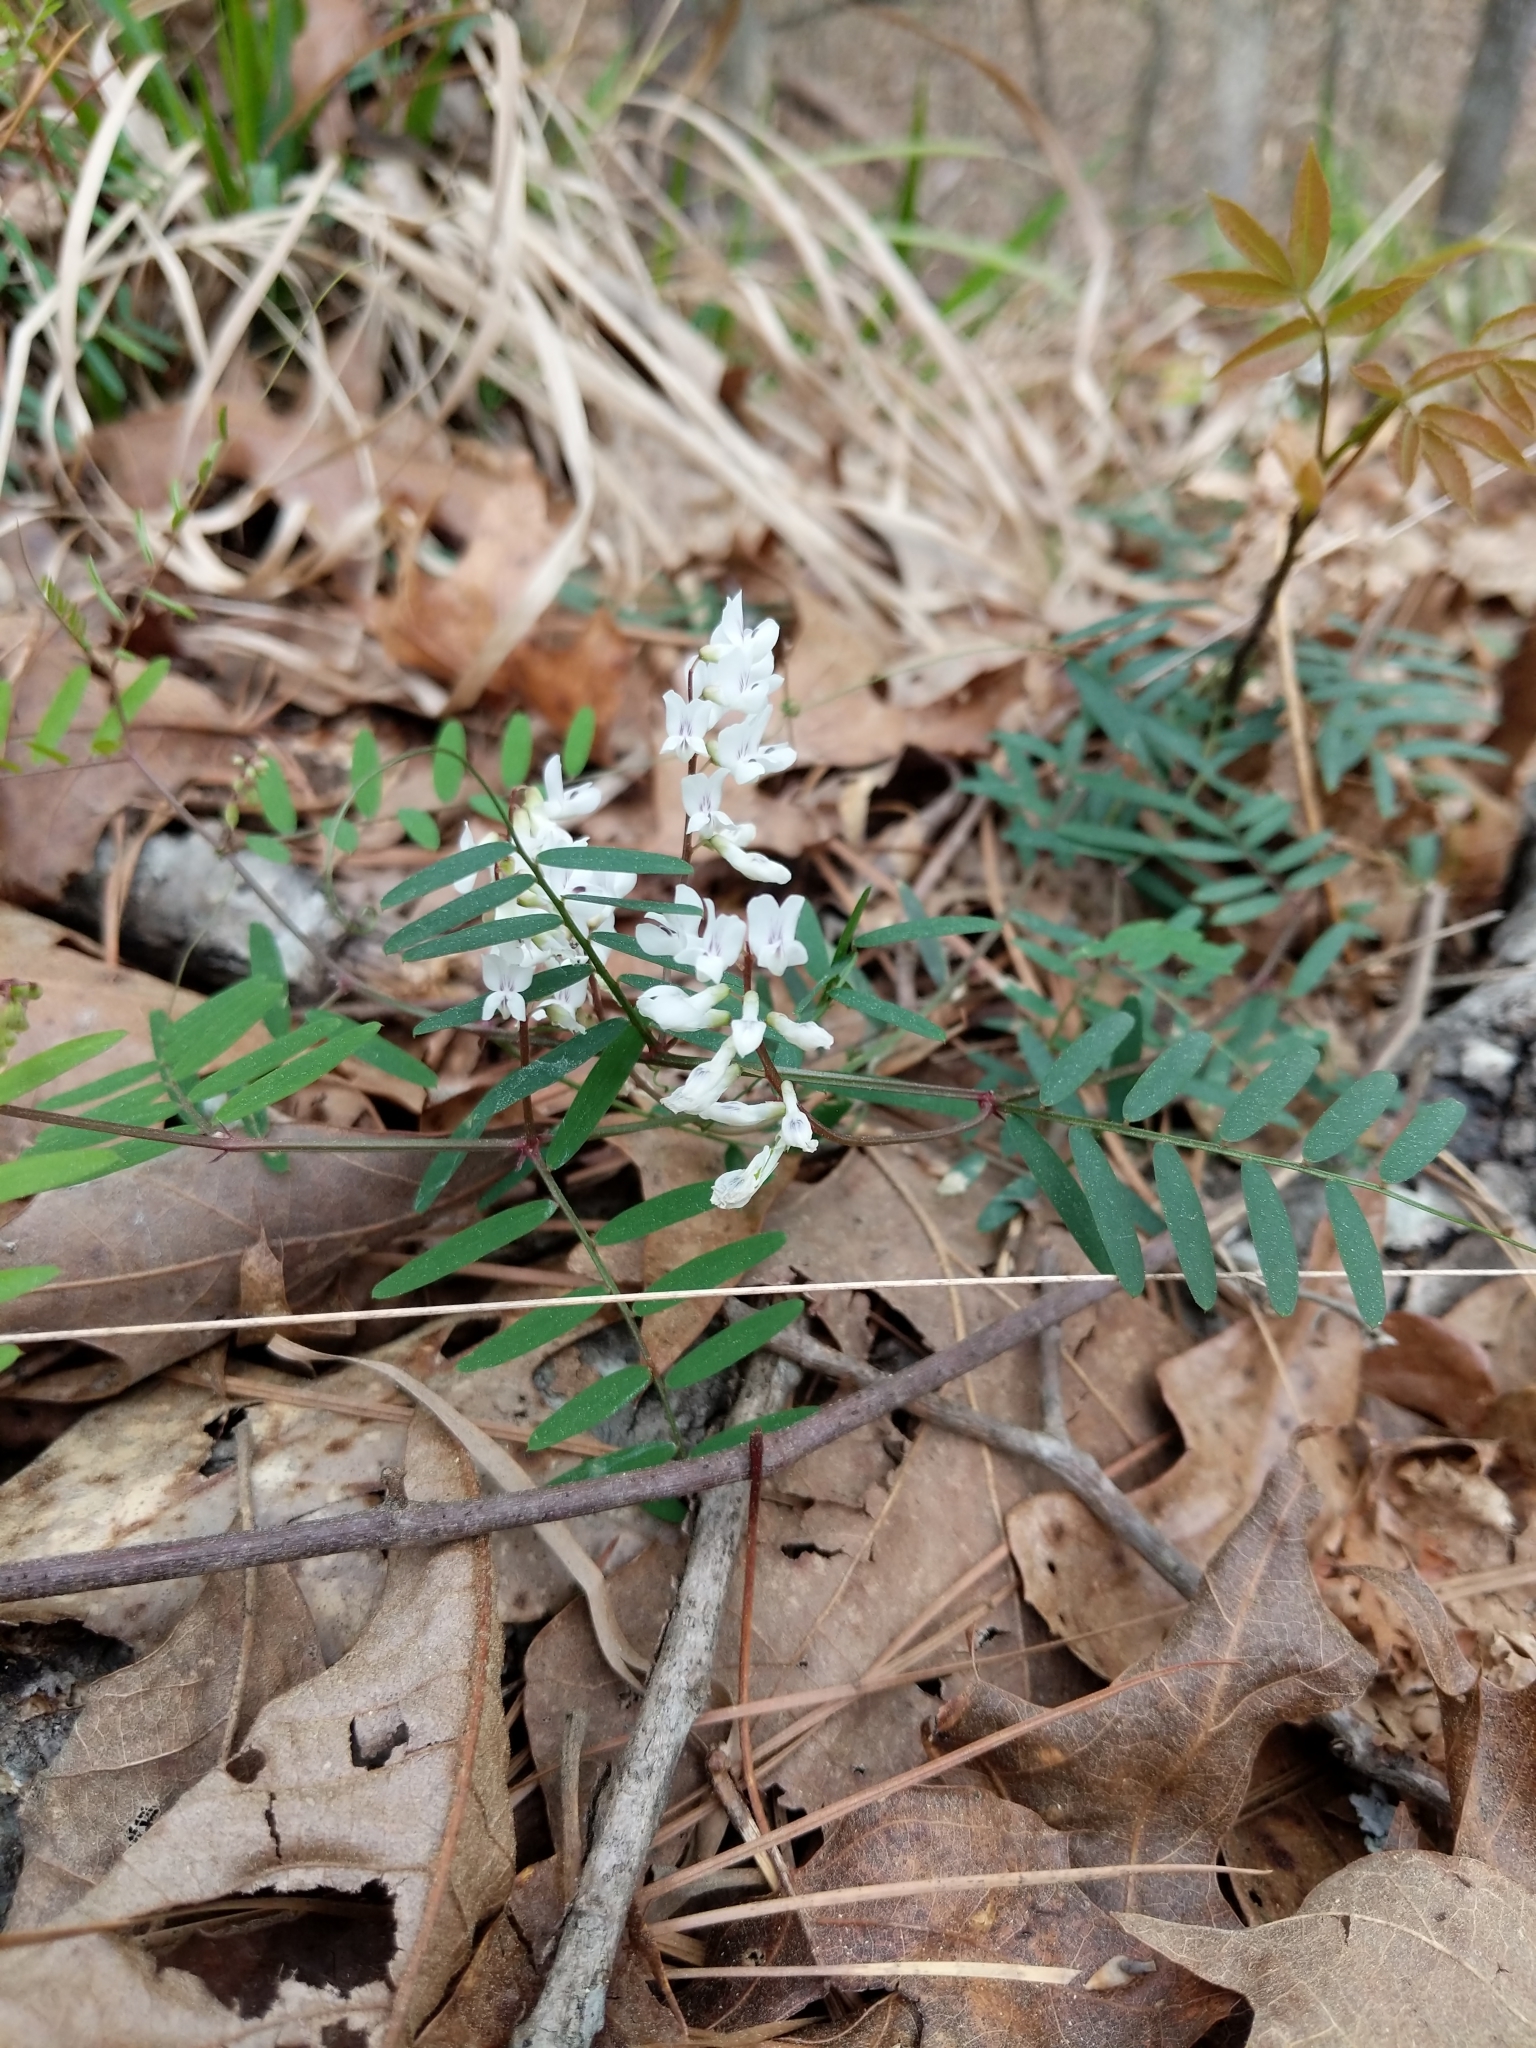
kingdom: Plantae
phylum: Tracheophyta
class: Magnoliopsida
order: Fabales
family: Fabaceae
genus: Vicia
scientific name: Vicia caroliniana
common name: Carolina vetch
